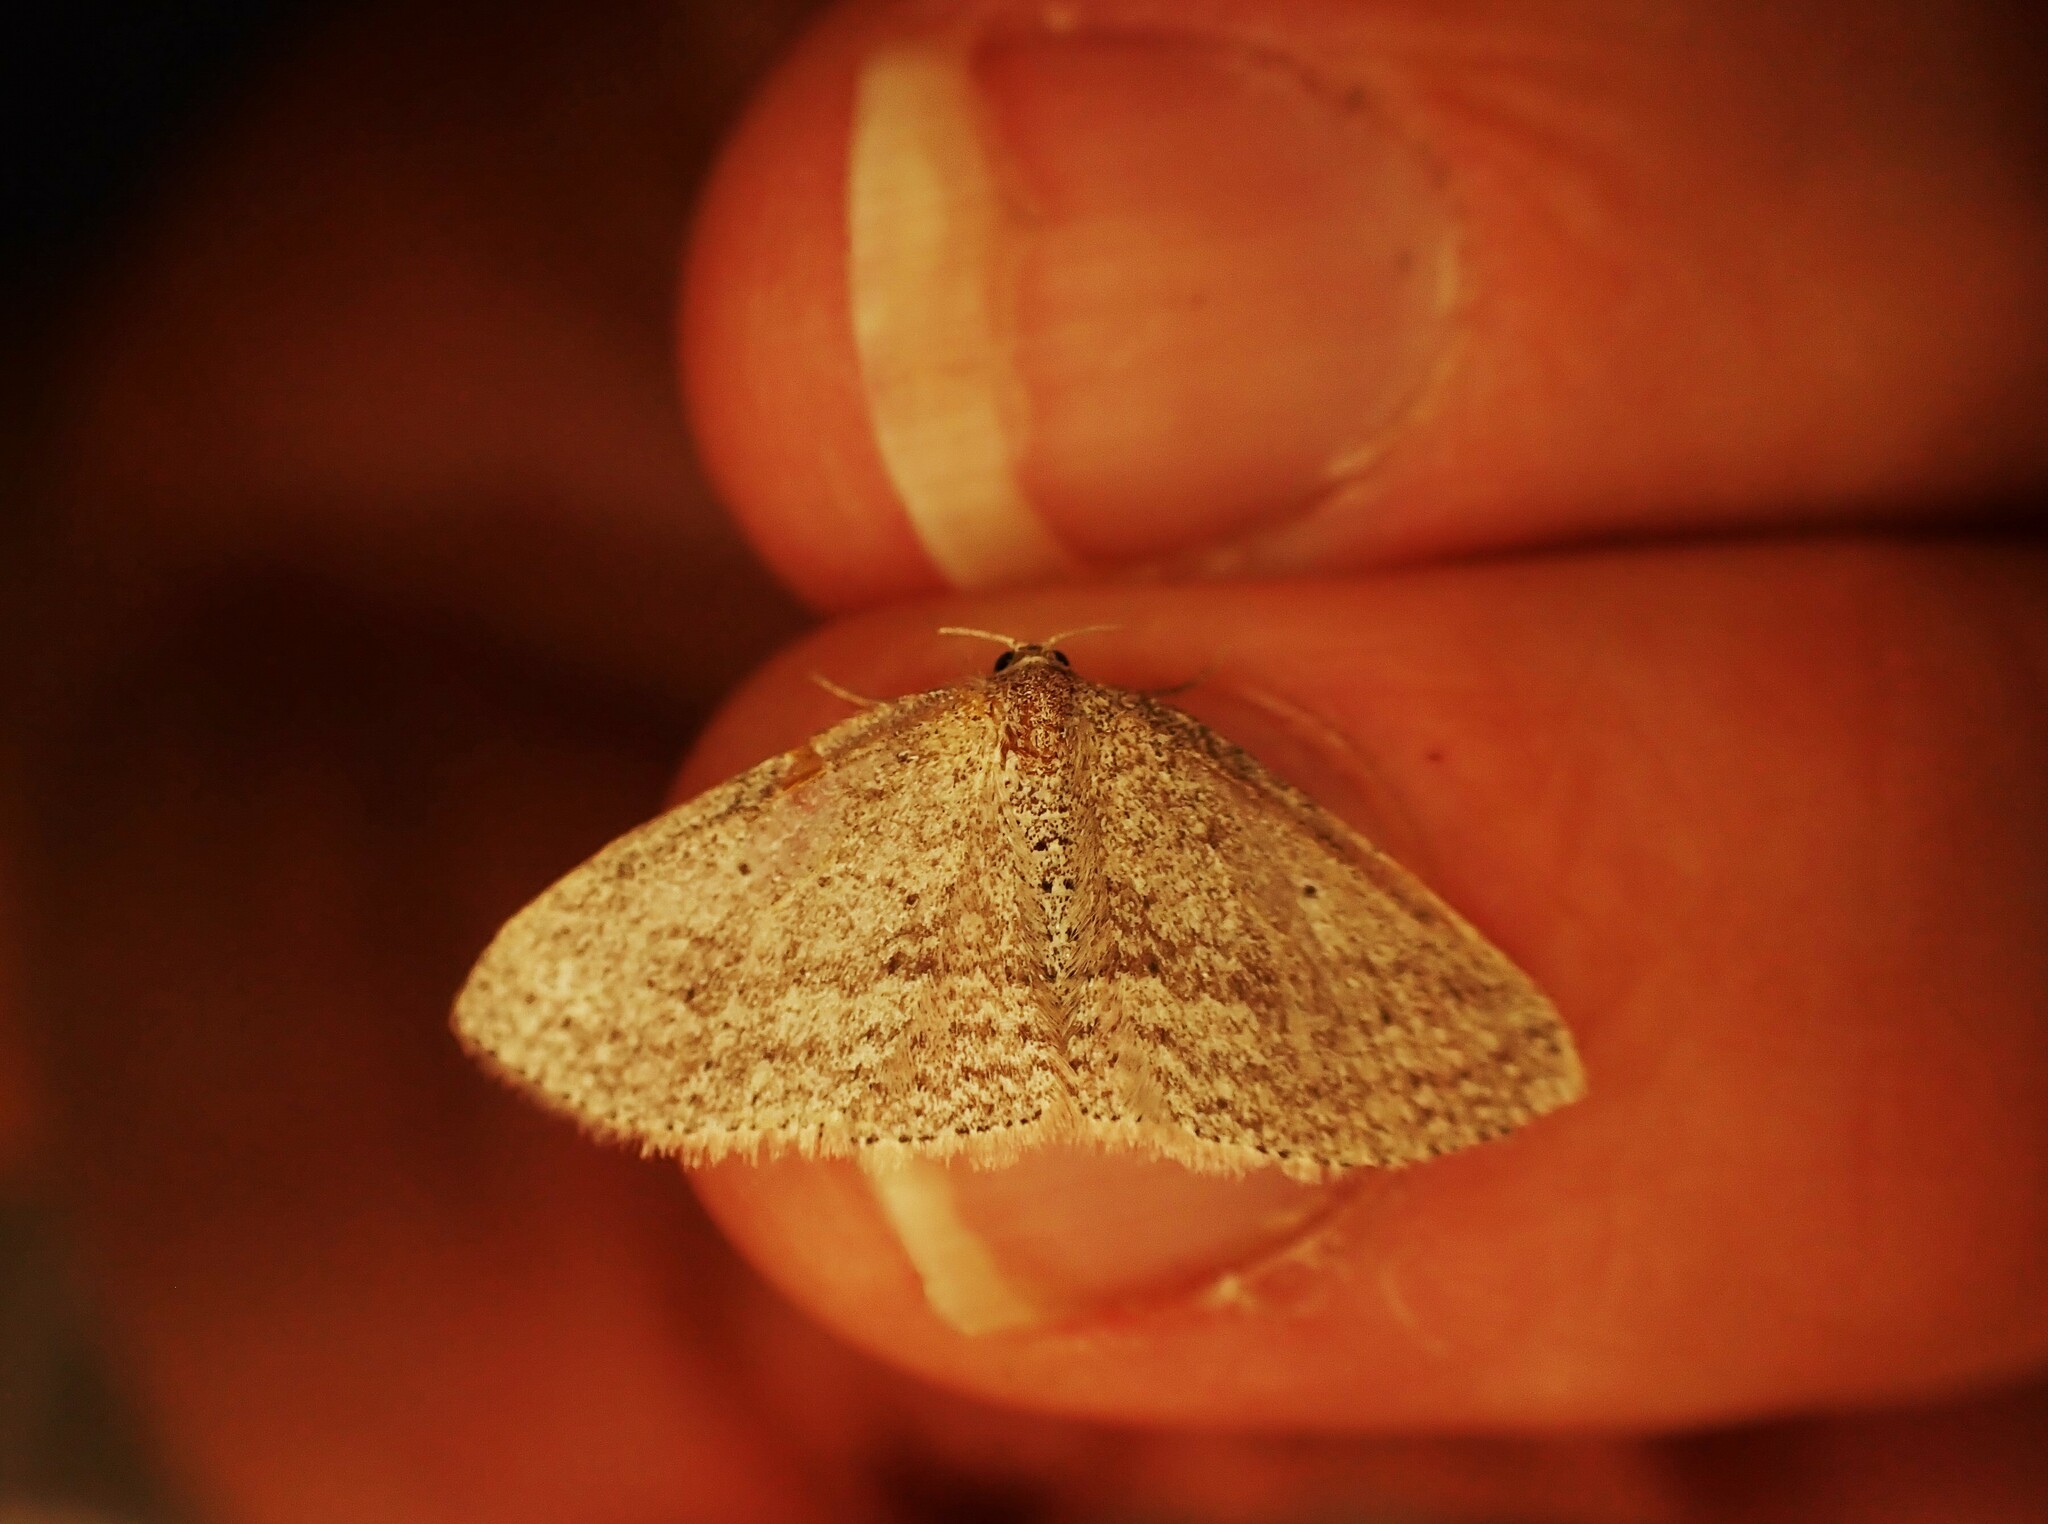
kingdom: Animalia
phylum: Arthropoda
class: Insecta
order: Lepidoptera
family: Geometridae
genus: Poecilasthena
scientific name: Poecilasthena schistaria
